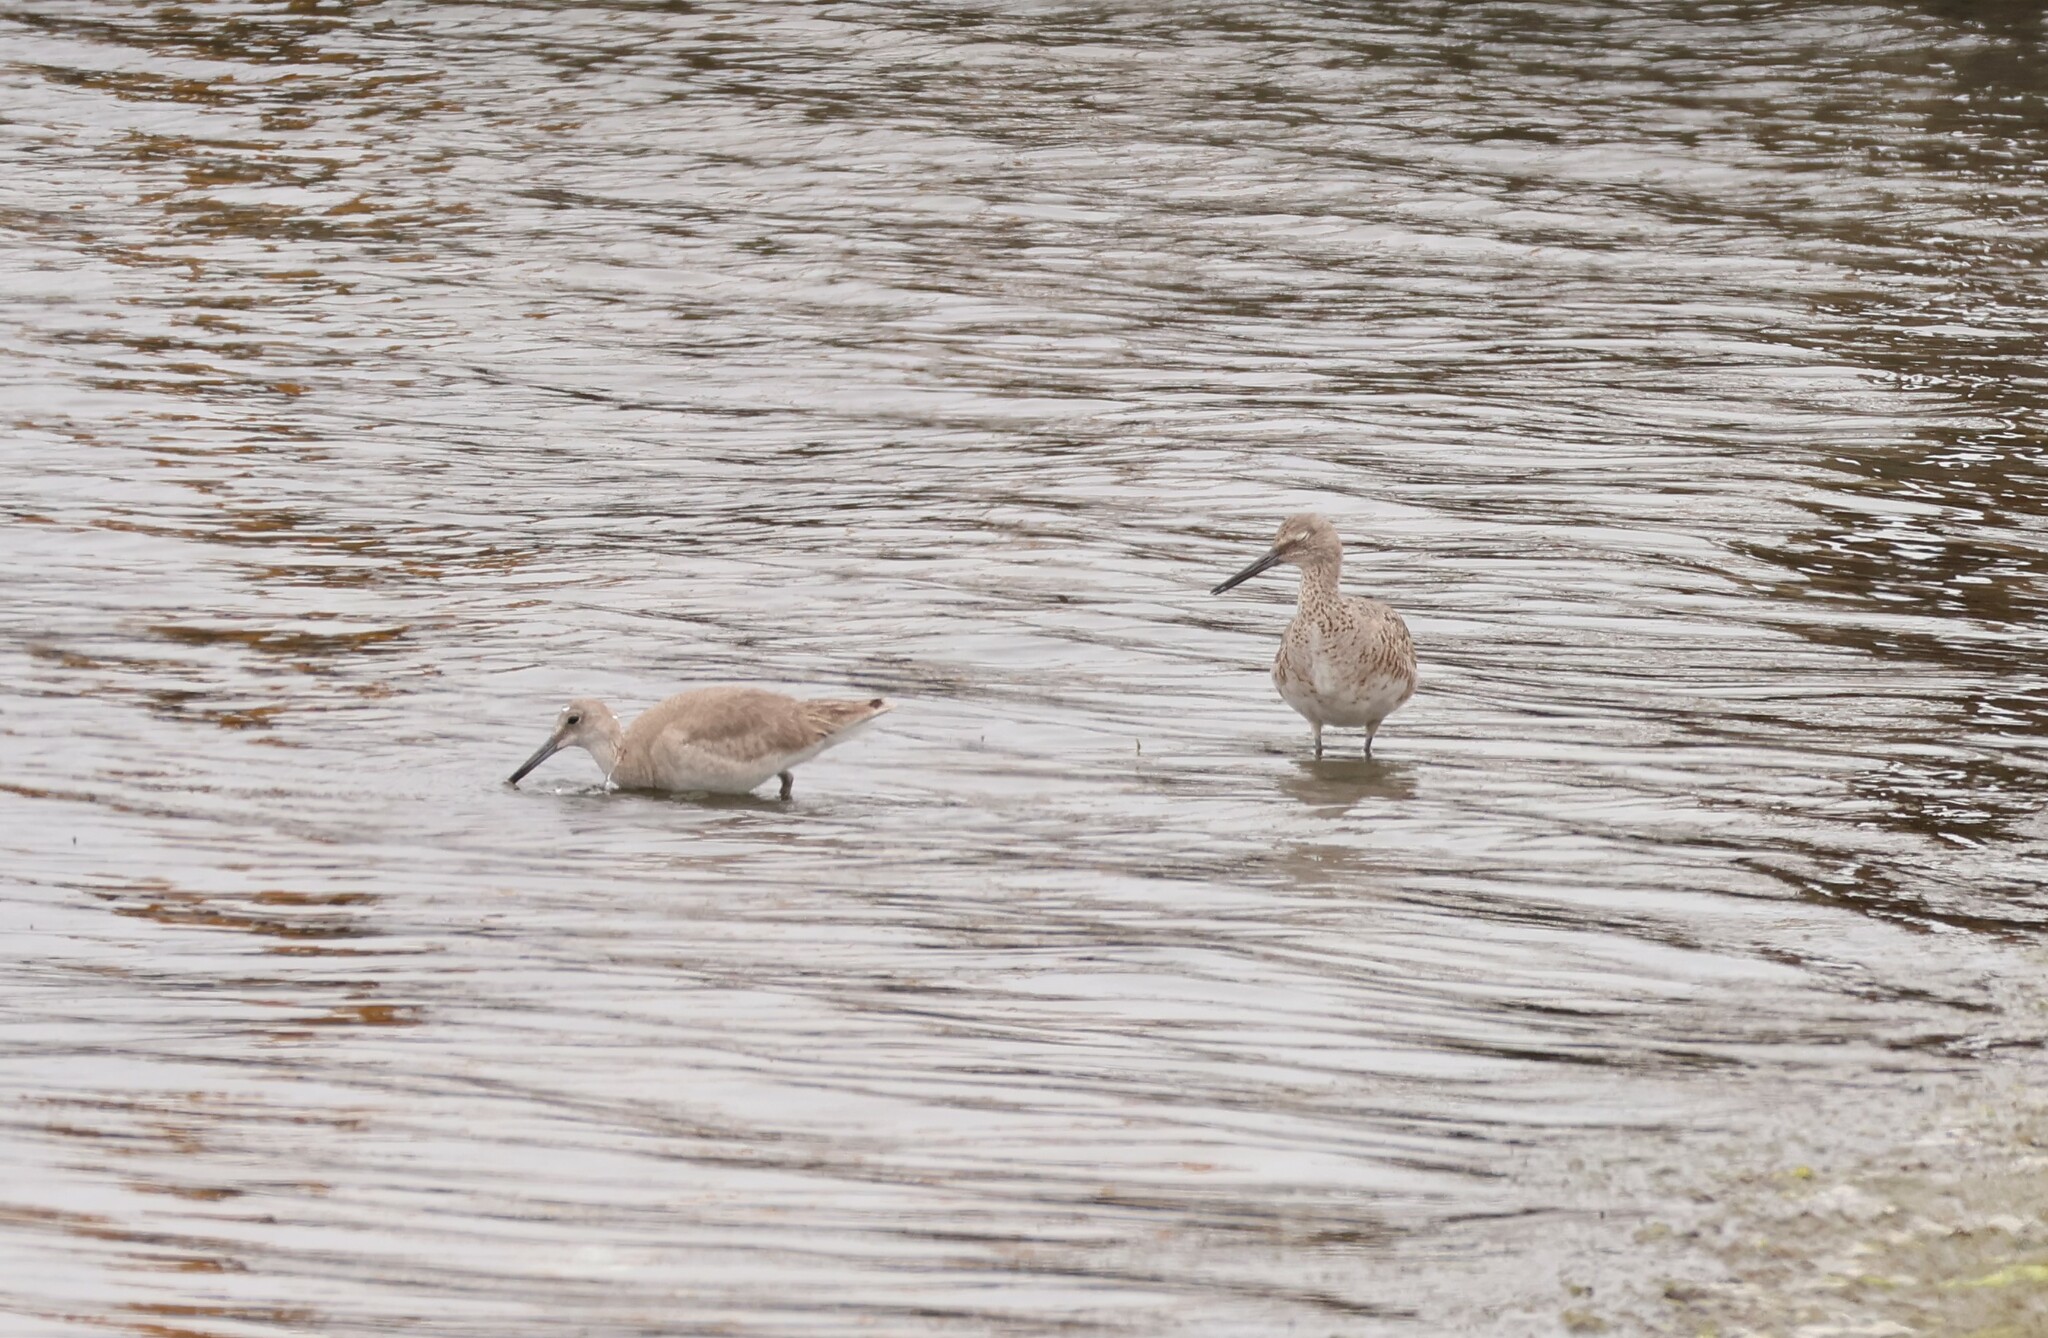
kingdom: Animalia
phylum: Chordata
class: Aves
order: Charadriiformes
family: Scolopacidae
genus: Tringa
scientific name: Tringa semipalmata
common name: Willet
